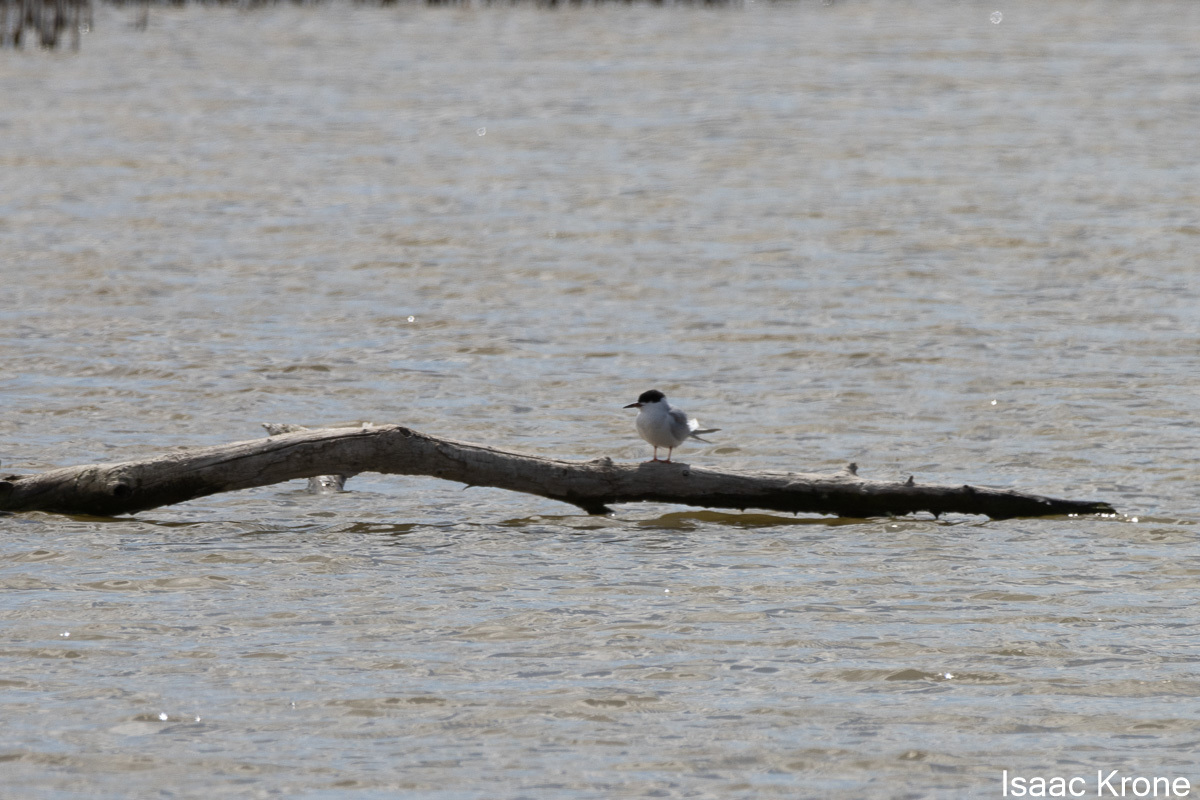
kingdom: Animalia
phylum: Chordata
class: Aves
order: Charadriiformes
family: Laridae
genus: Sterna
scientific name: Sterna forsteri
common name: Forster's tern
